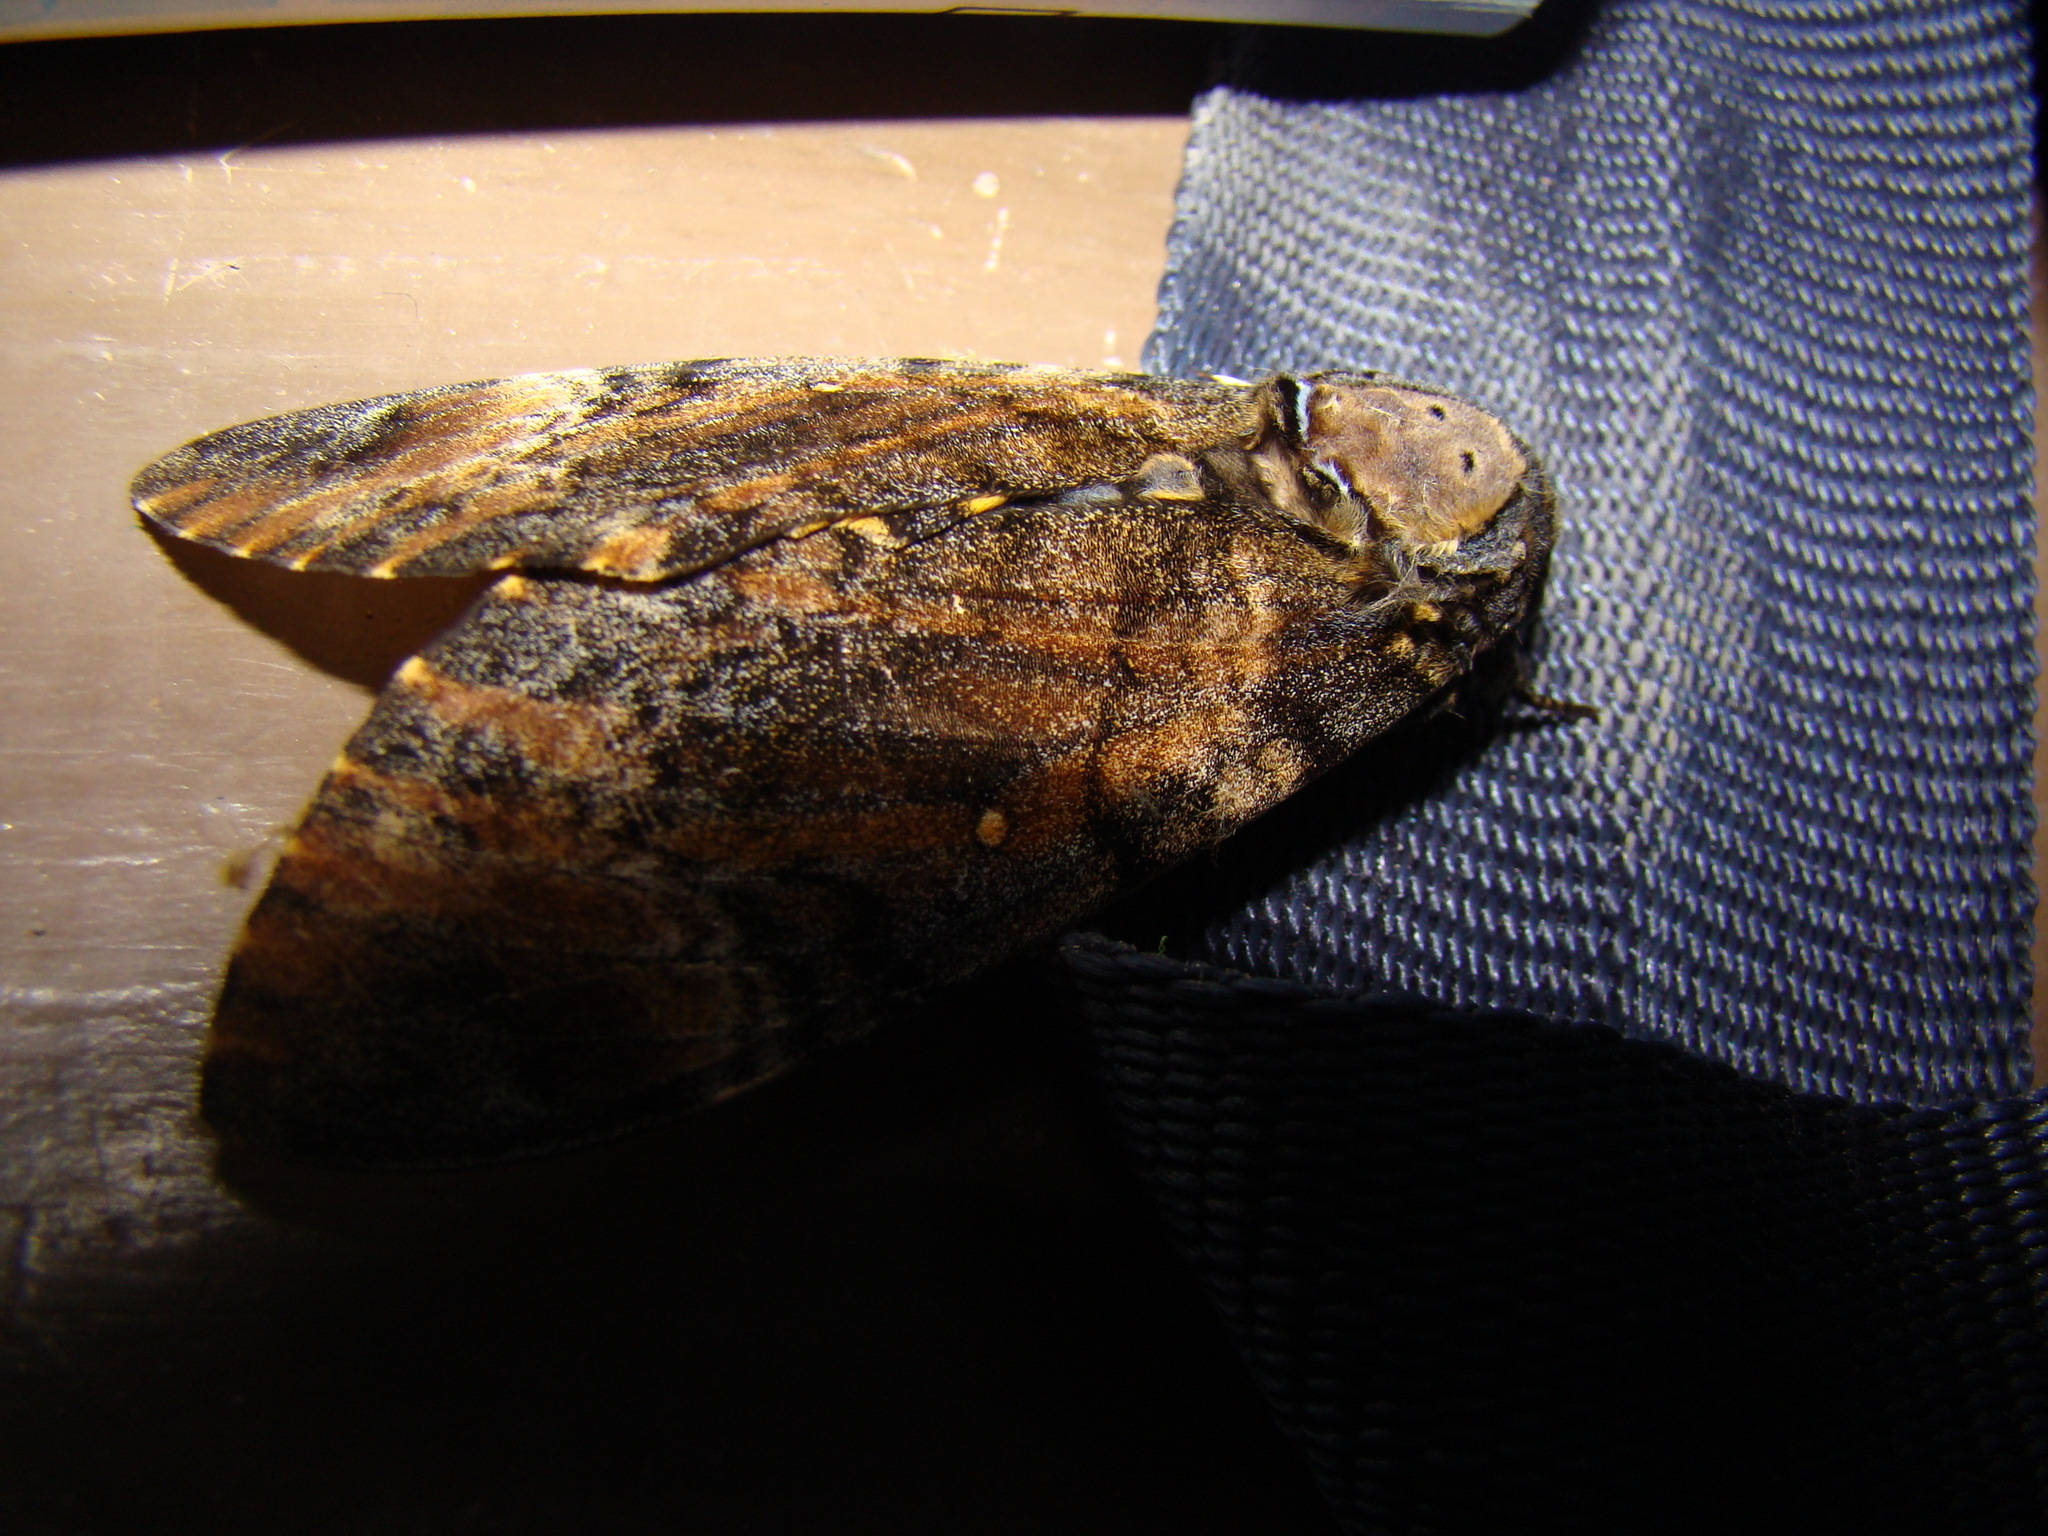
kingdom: Animalia
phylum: Arthropoda
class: Insecta
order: Lepidoptera
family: Sphingidae
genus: Acherontia
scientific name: Acherontia styx
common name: Death's-head hawk moth
